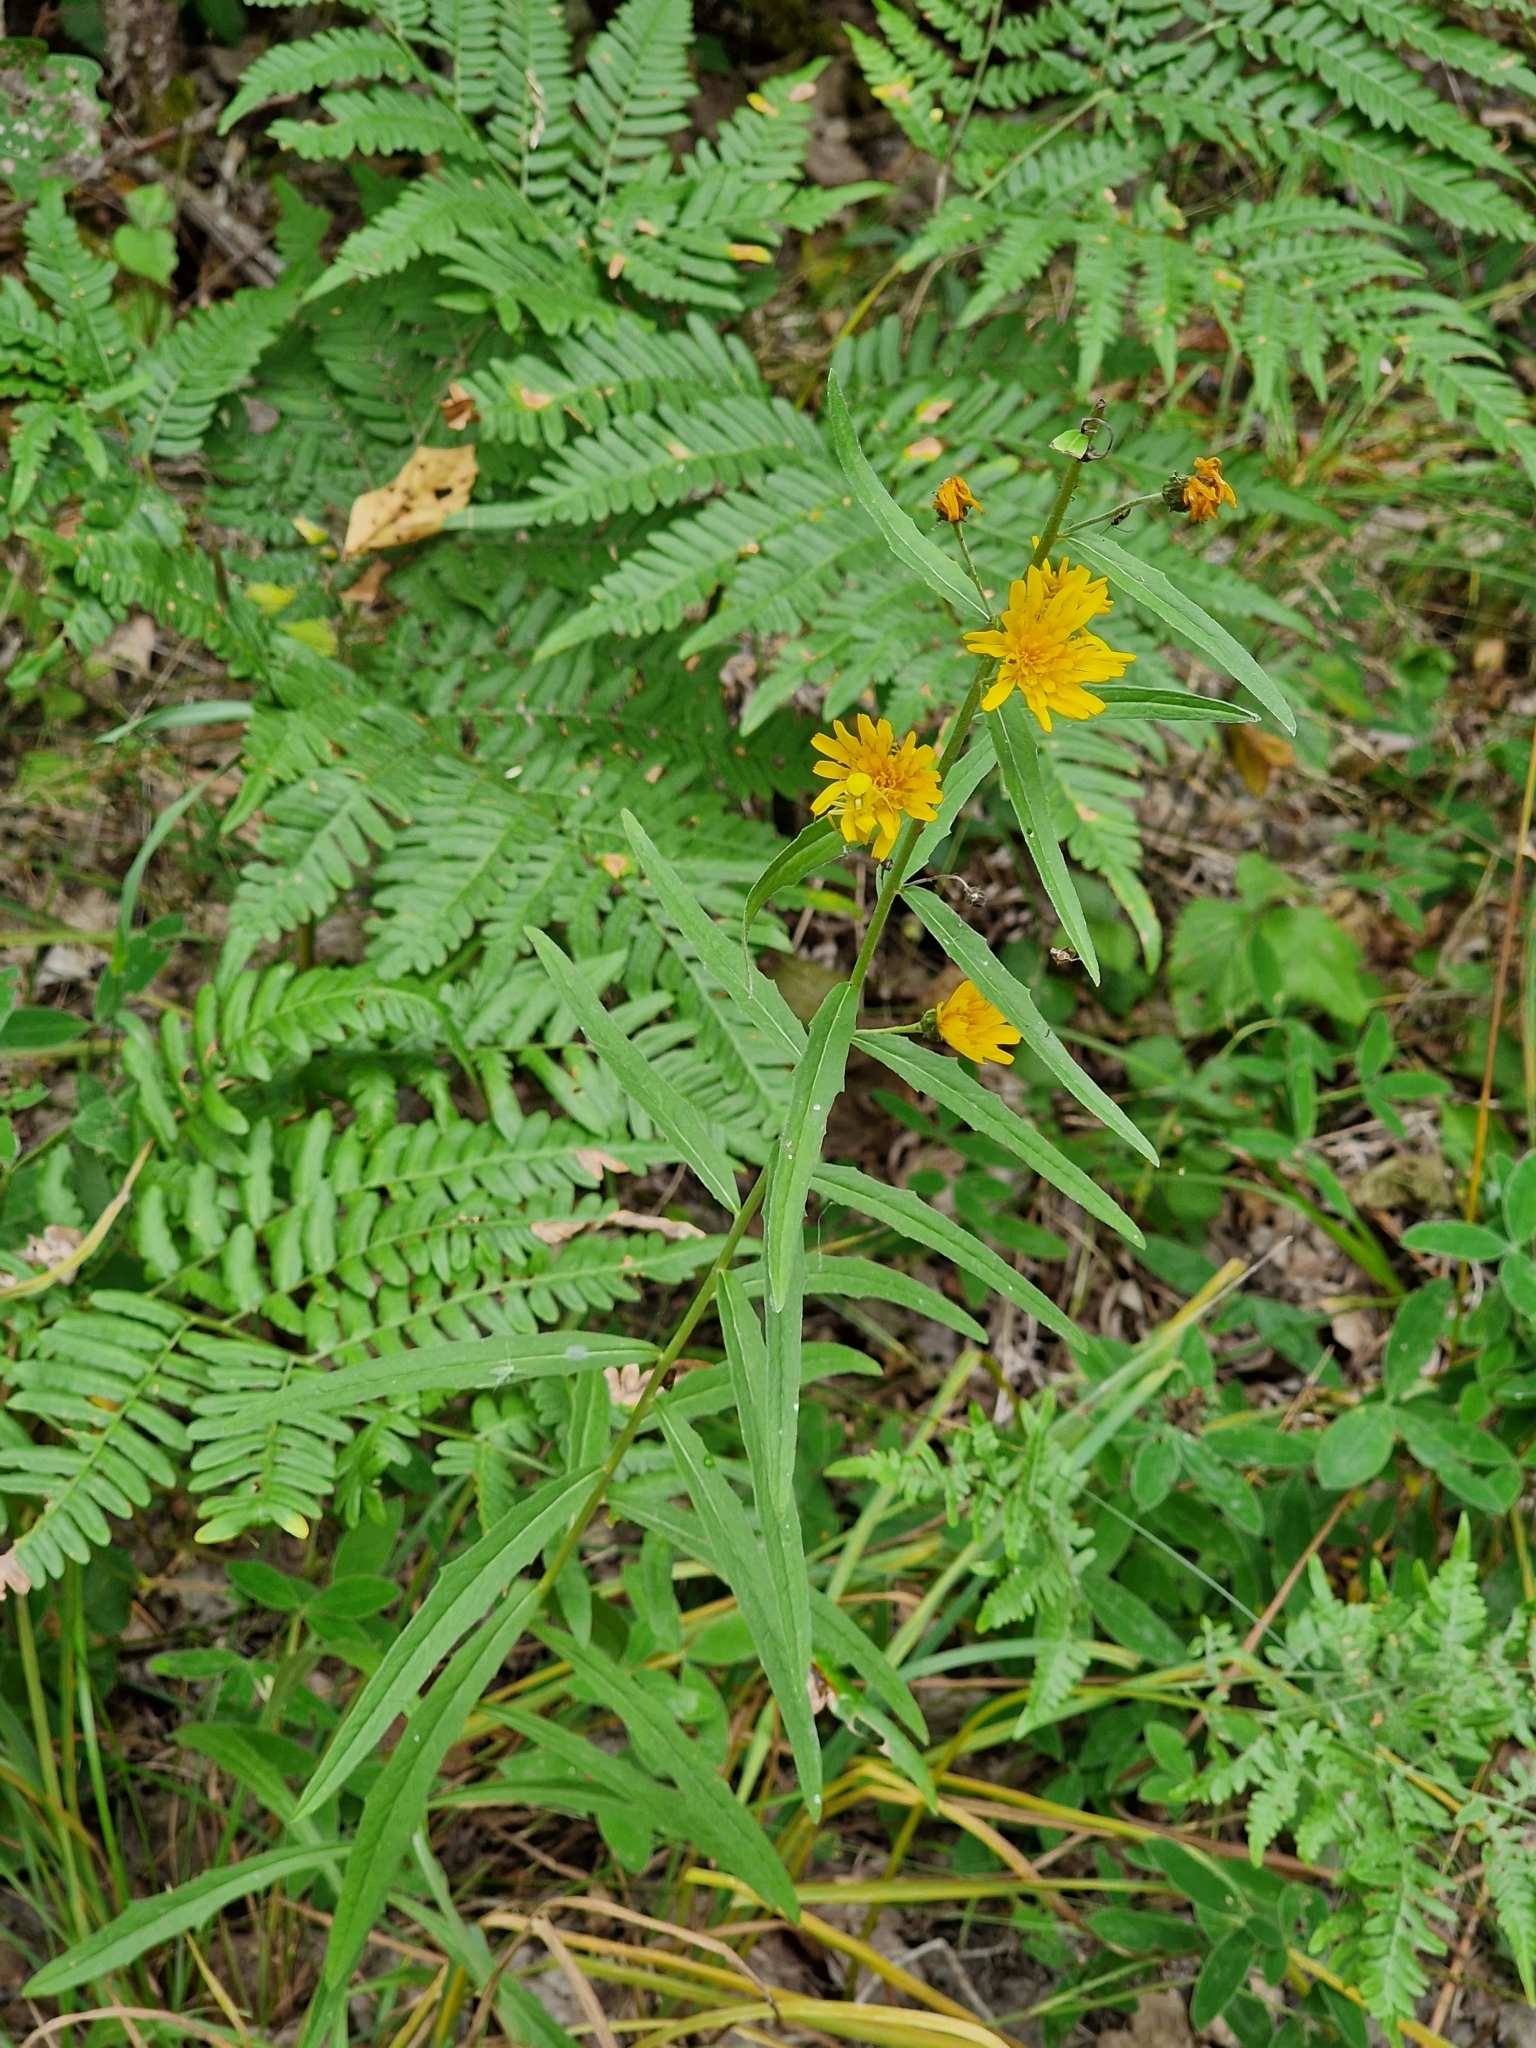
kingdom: Plantae
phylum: Tracheophyta
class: Magnoliopsida
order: Asterales
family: Asteraceae
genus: Hieracium
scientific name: Hieracium umbellatum
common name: Northern hawkweed
